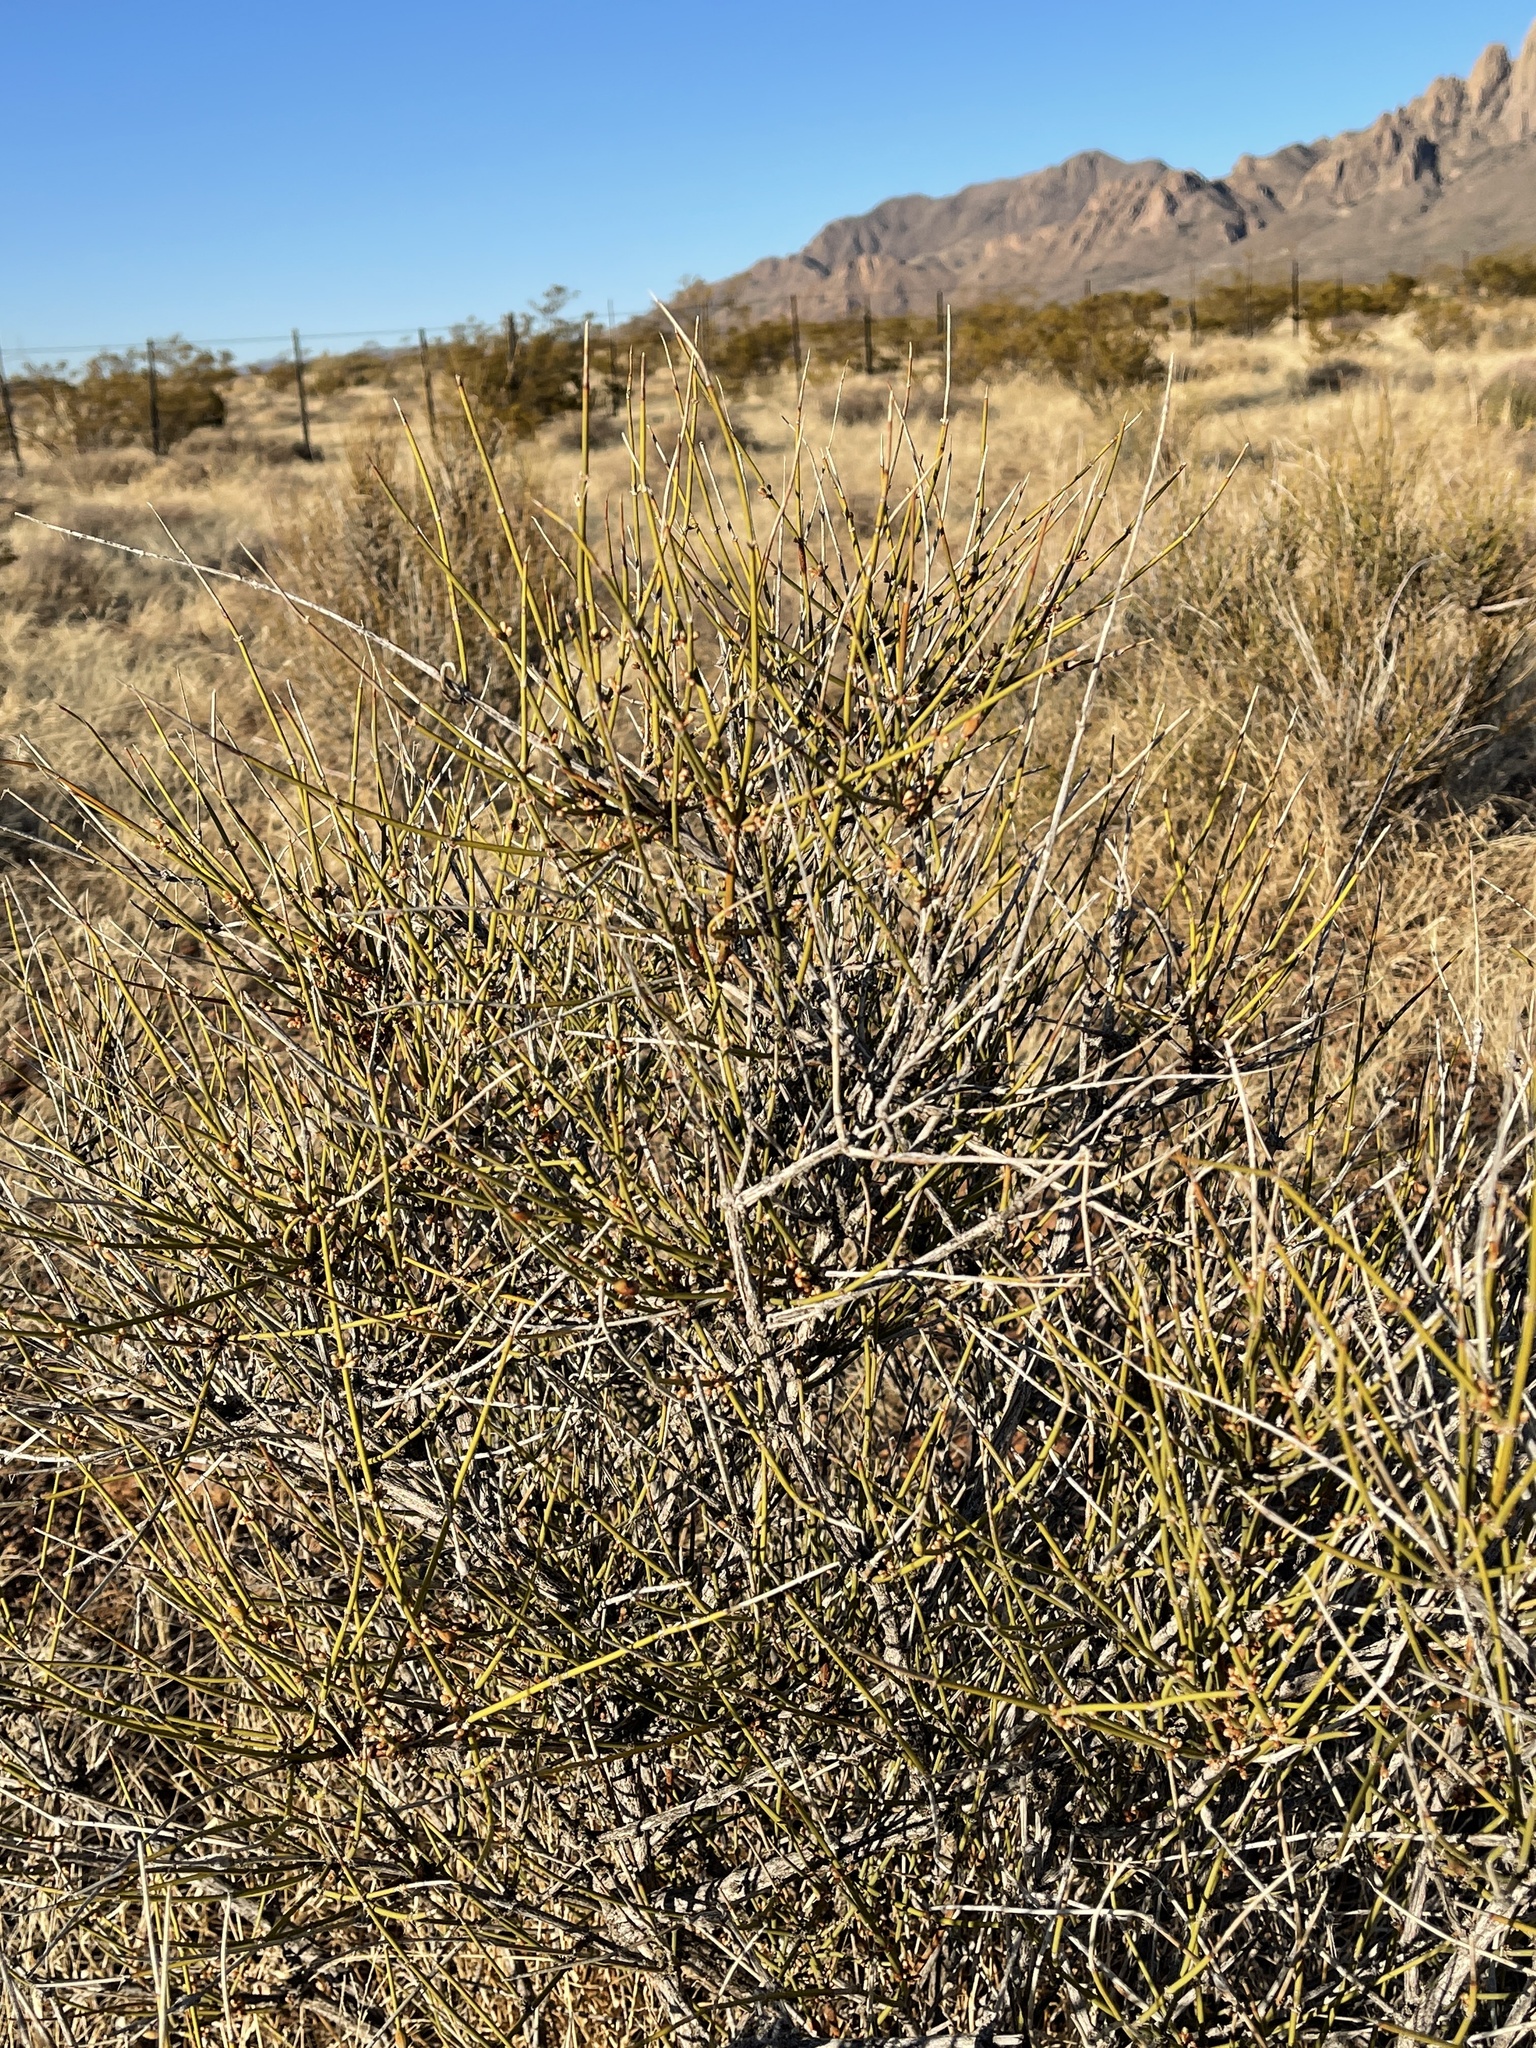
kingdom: Plantae
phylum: Tracheophyta
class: Gnetopsida
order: Ephedrales
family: Ephedraceae
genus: Ephedra
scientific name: Ephedra trifurca
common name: Mexican-tea
